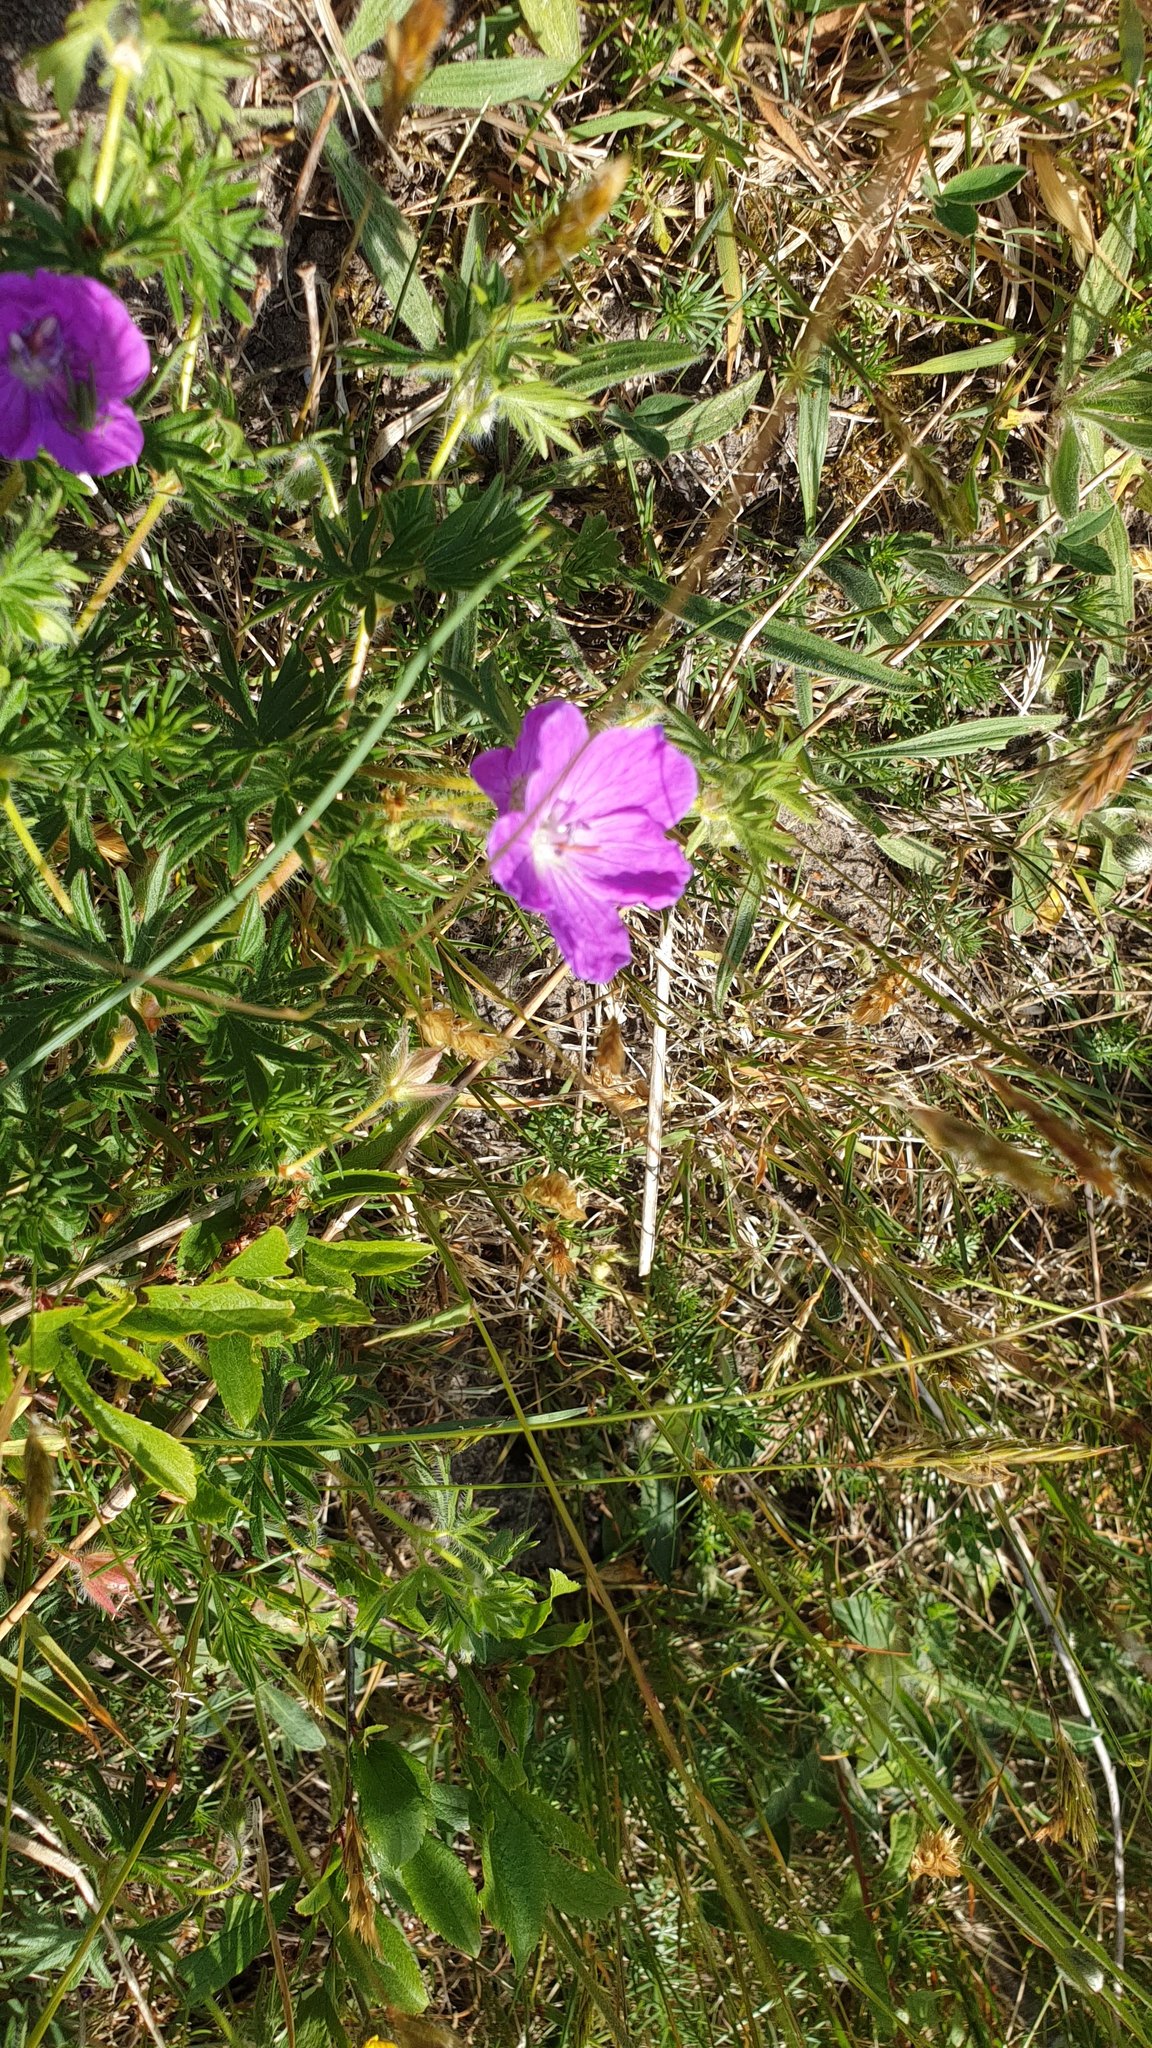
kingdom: Plantae
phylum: Tracheophyta
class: Magnoliopsida
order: Geraniales
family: Geraniaceae
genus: Geranium
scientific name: Geranium sanguineum
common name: Bloody crane's-bill
